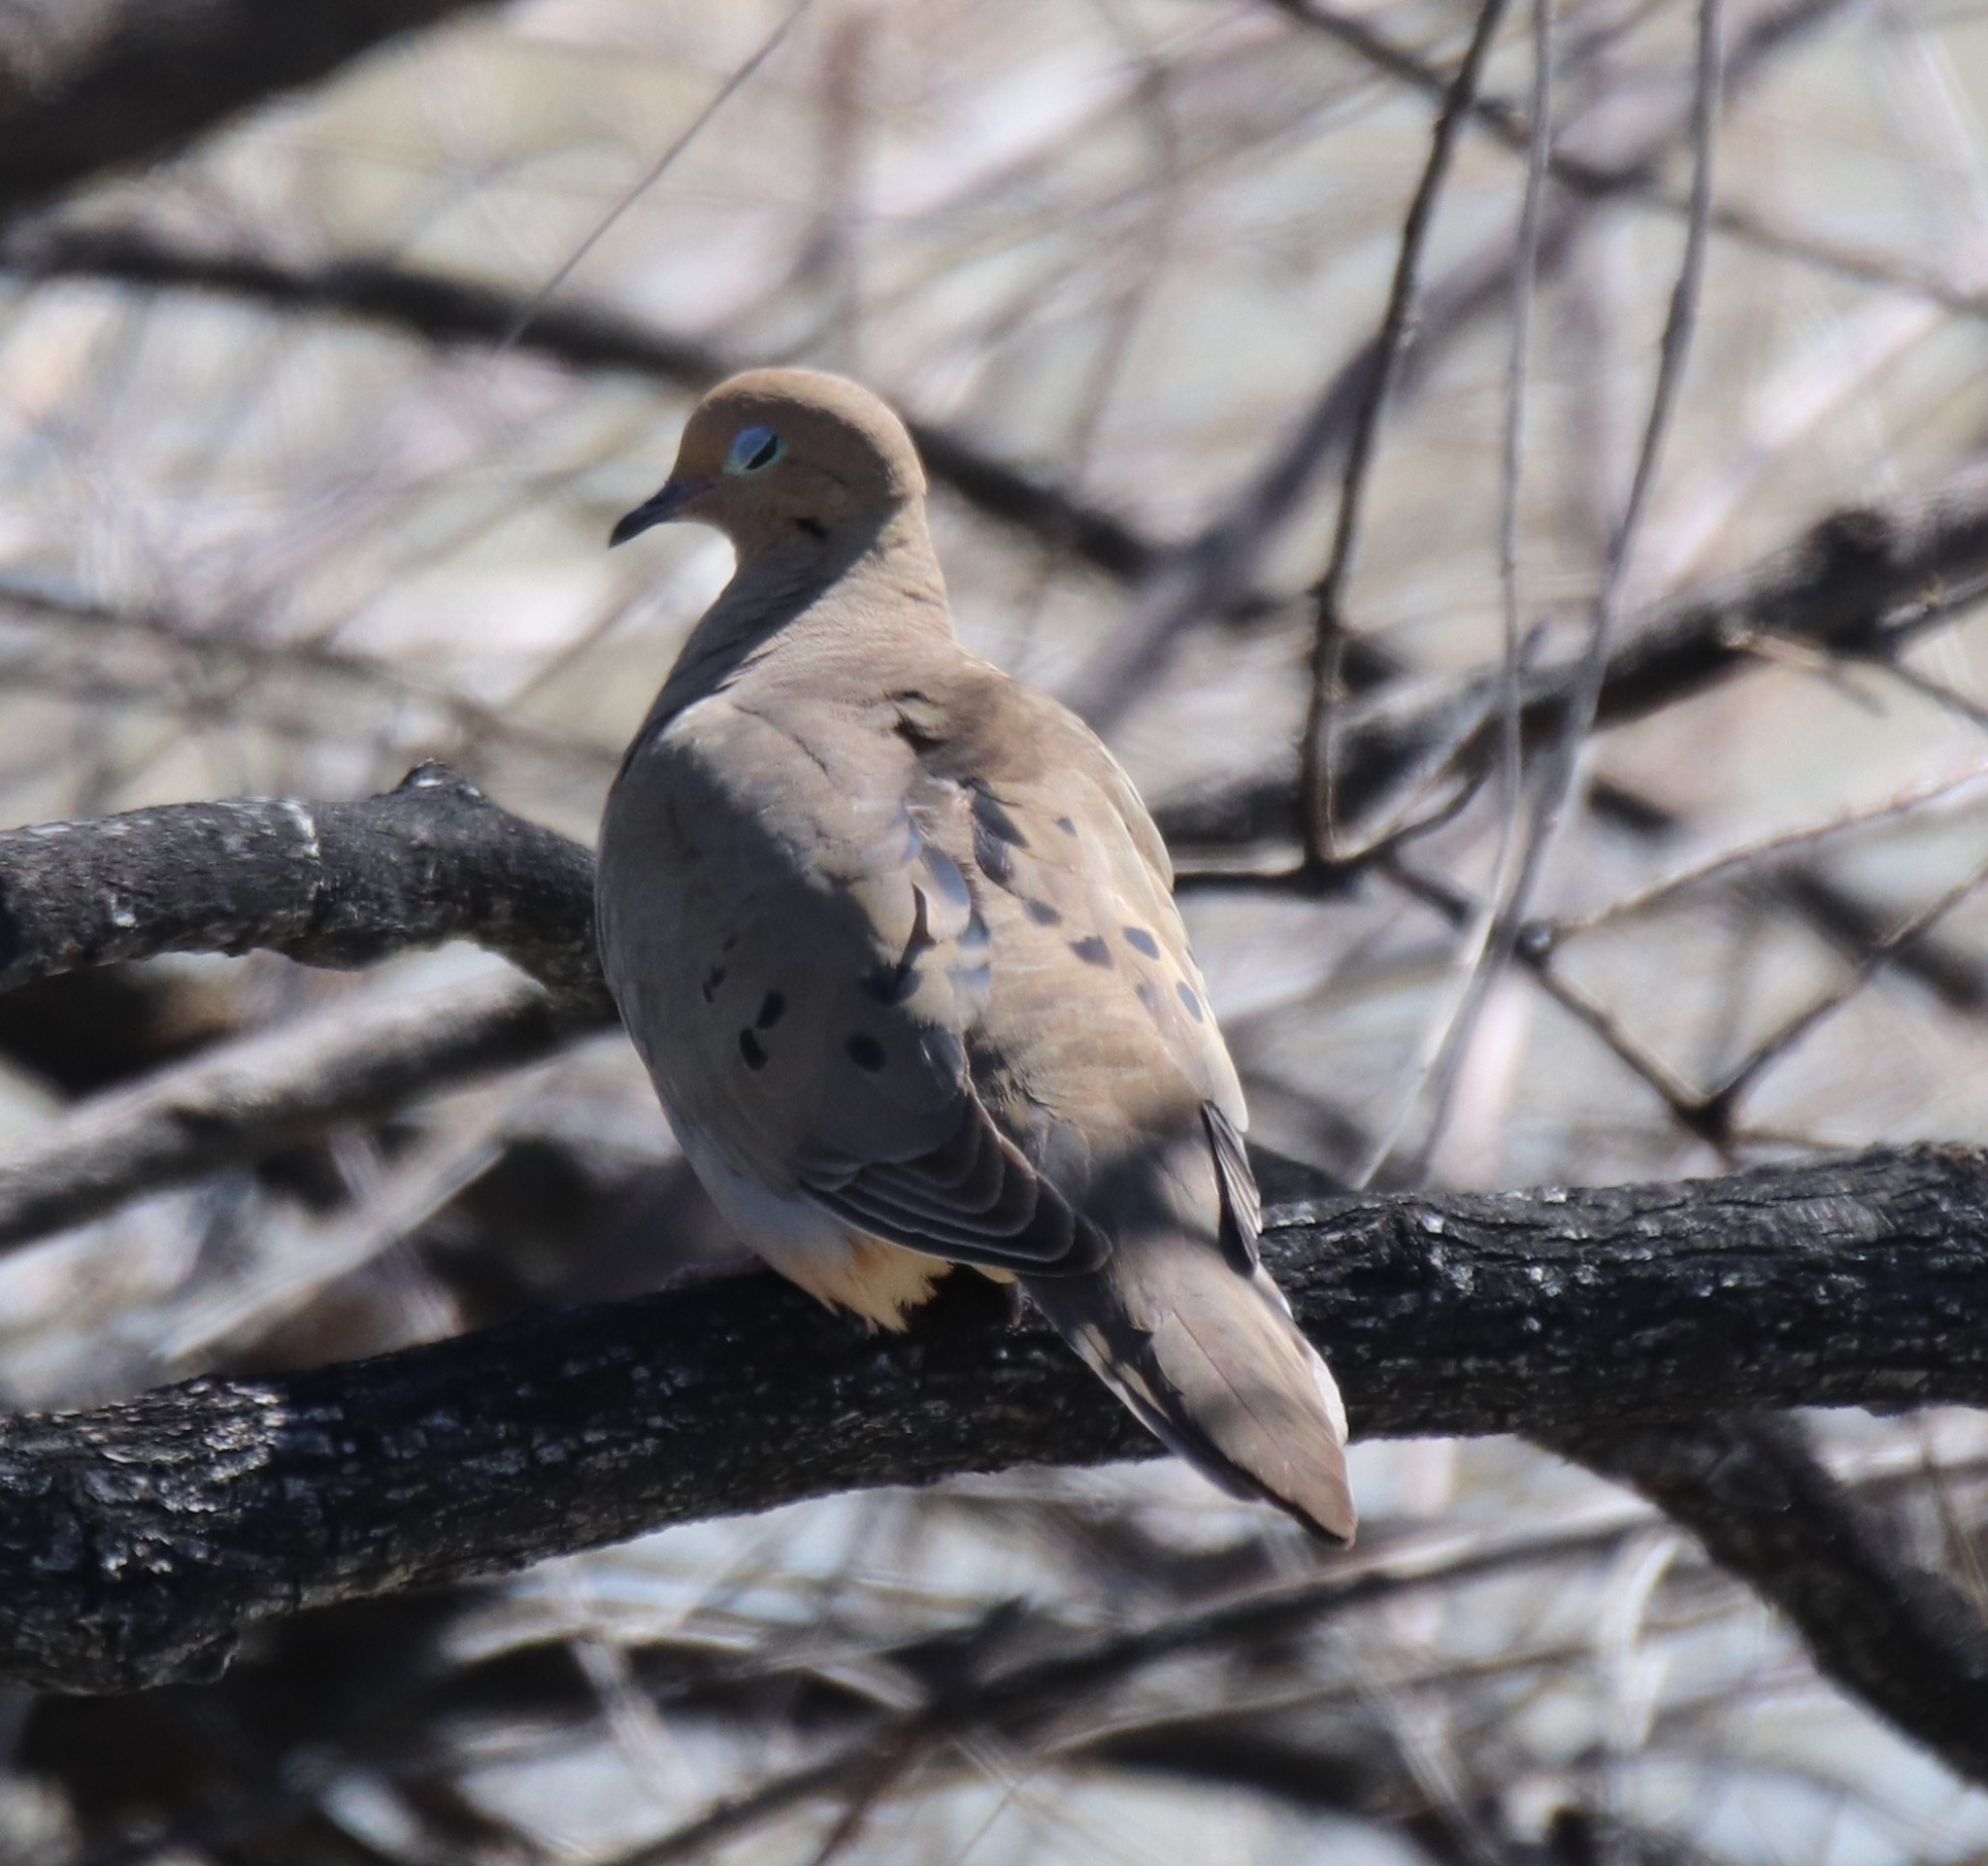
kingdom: Animalia
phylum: Chordata
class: Aves
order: Columbiformes
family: Columbidae
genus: Zenaida
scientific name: Zenaida macroura
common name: Mourning dove
